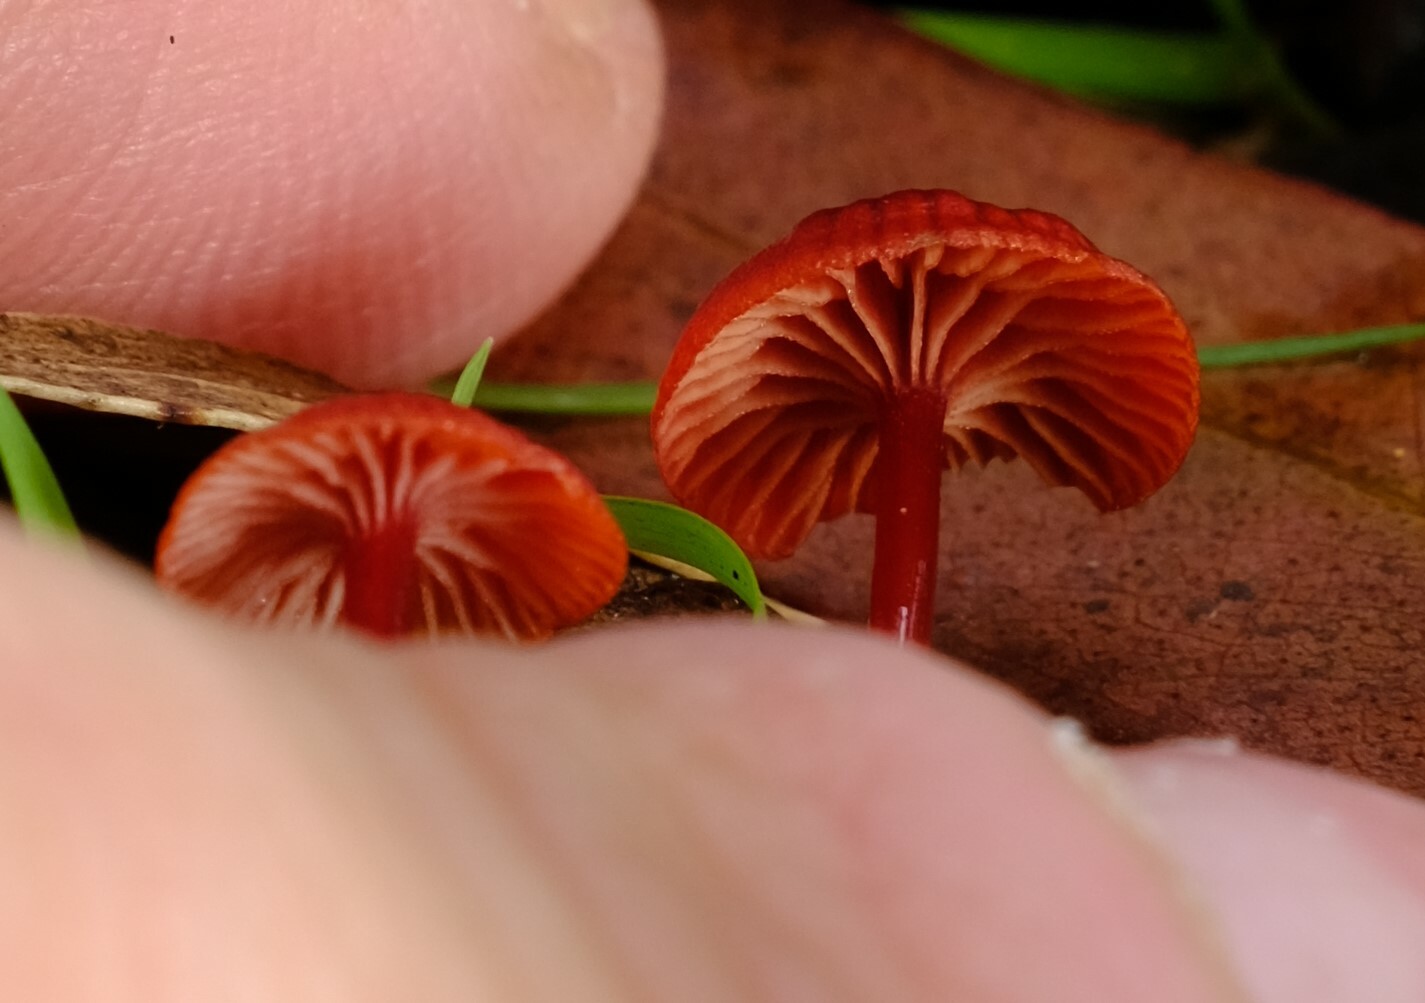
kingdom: Fungi
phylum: Basidiomycota
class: Agaricomycetes
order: Agaricales
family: Mycenaceae
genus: Cruentomycena
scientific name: Cruentomycena viscidocruenta
